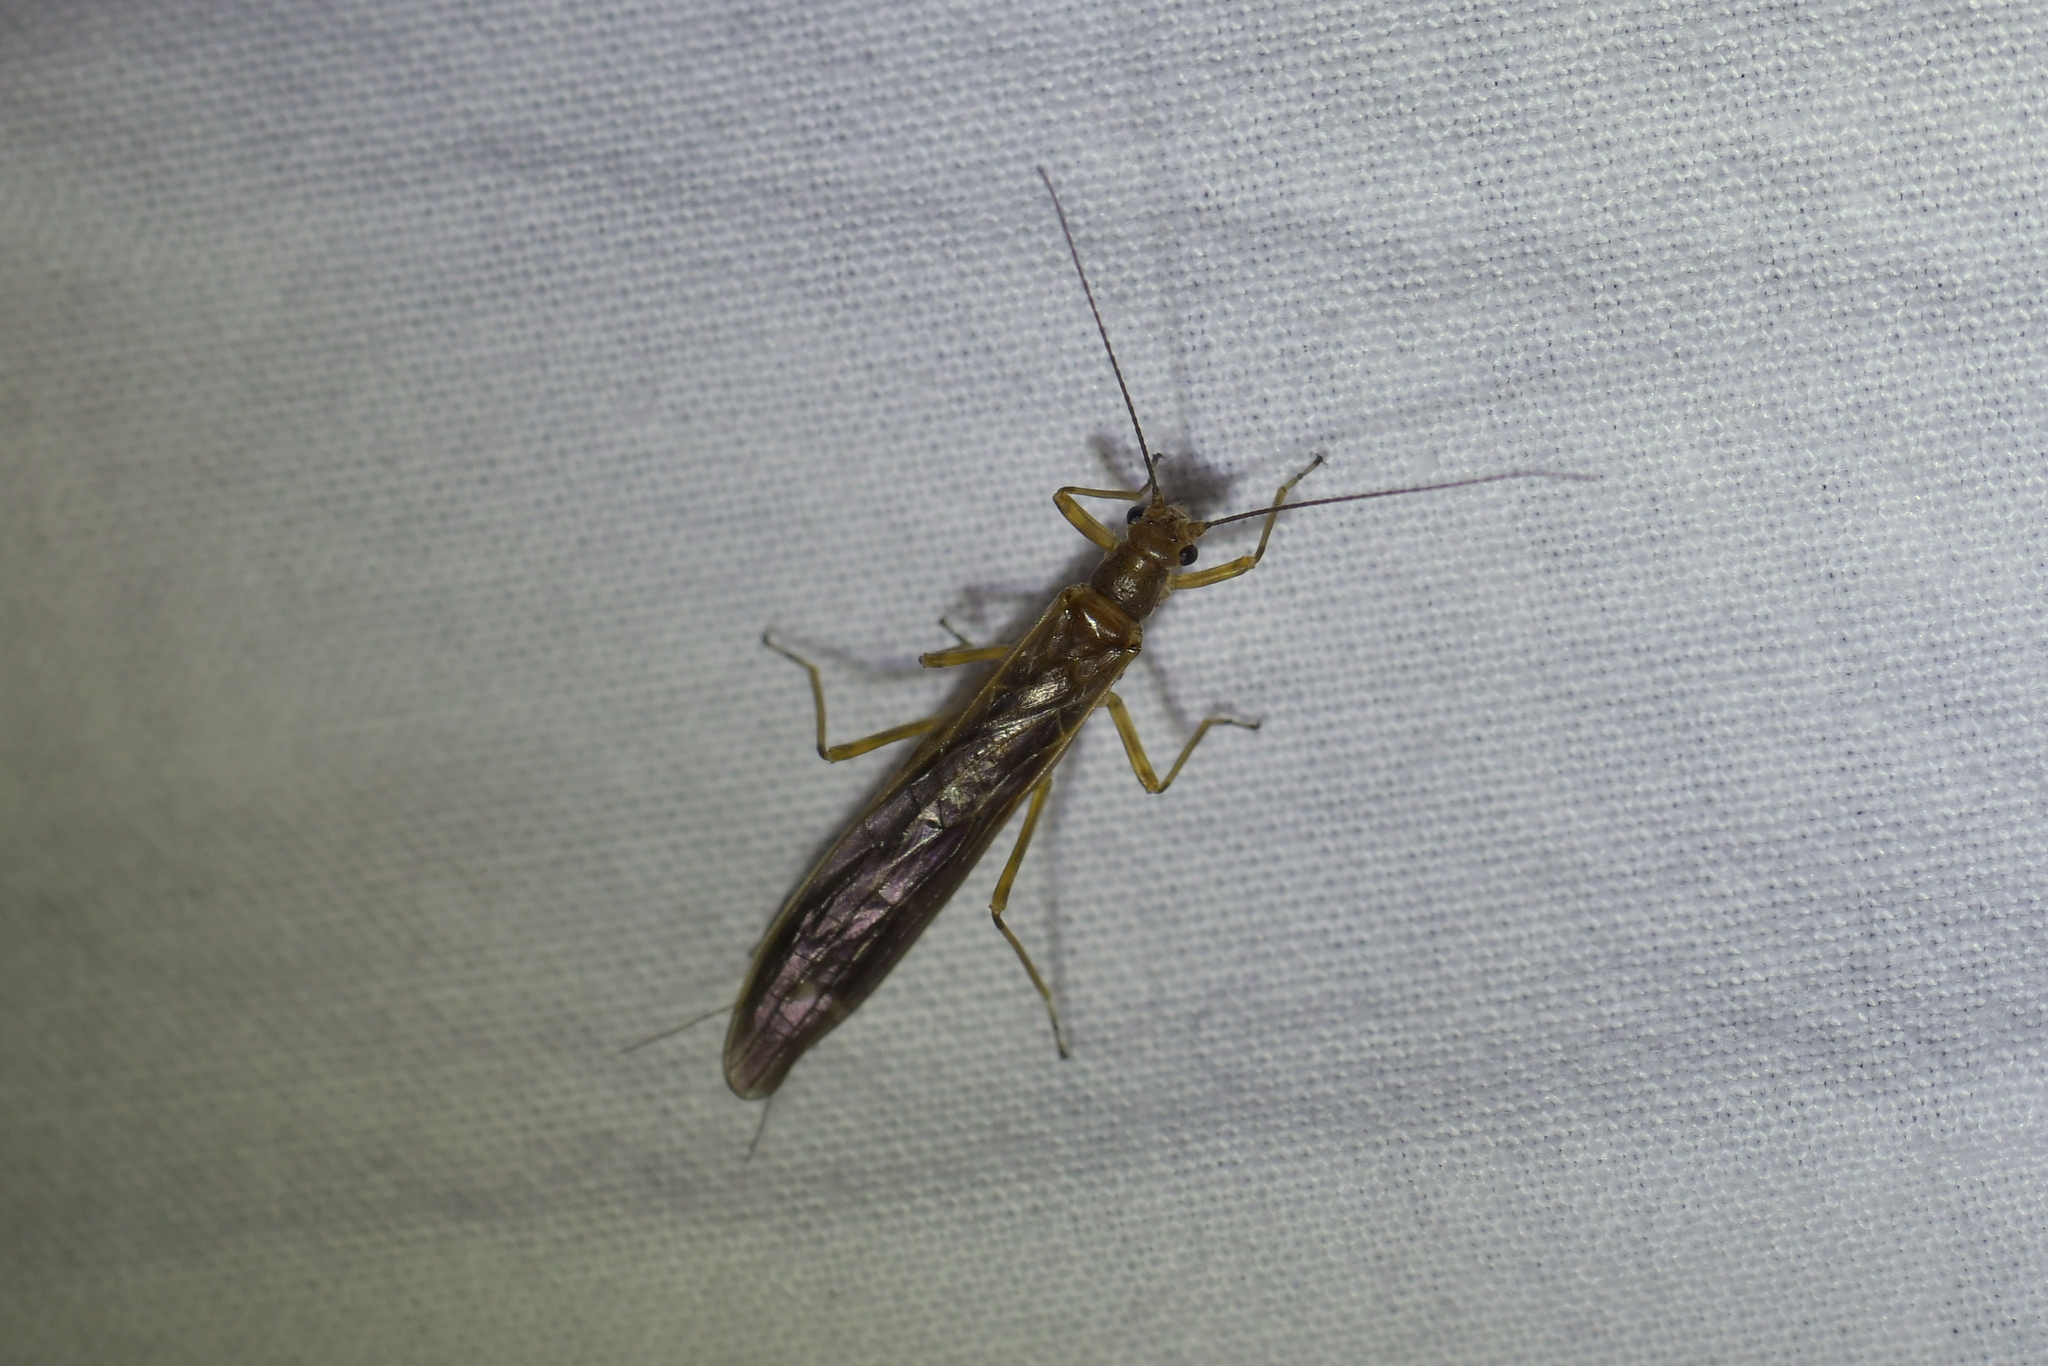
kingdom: Animalia
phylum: Arthropoda
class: Insecta
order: Plecoptera
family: Gripopterygidae
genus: Acroperla
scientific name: Acroperla trivacuata
